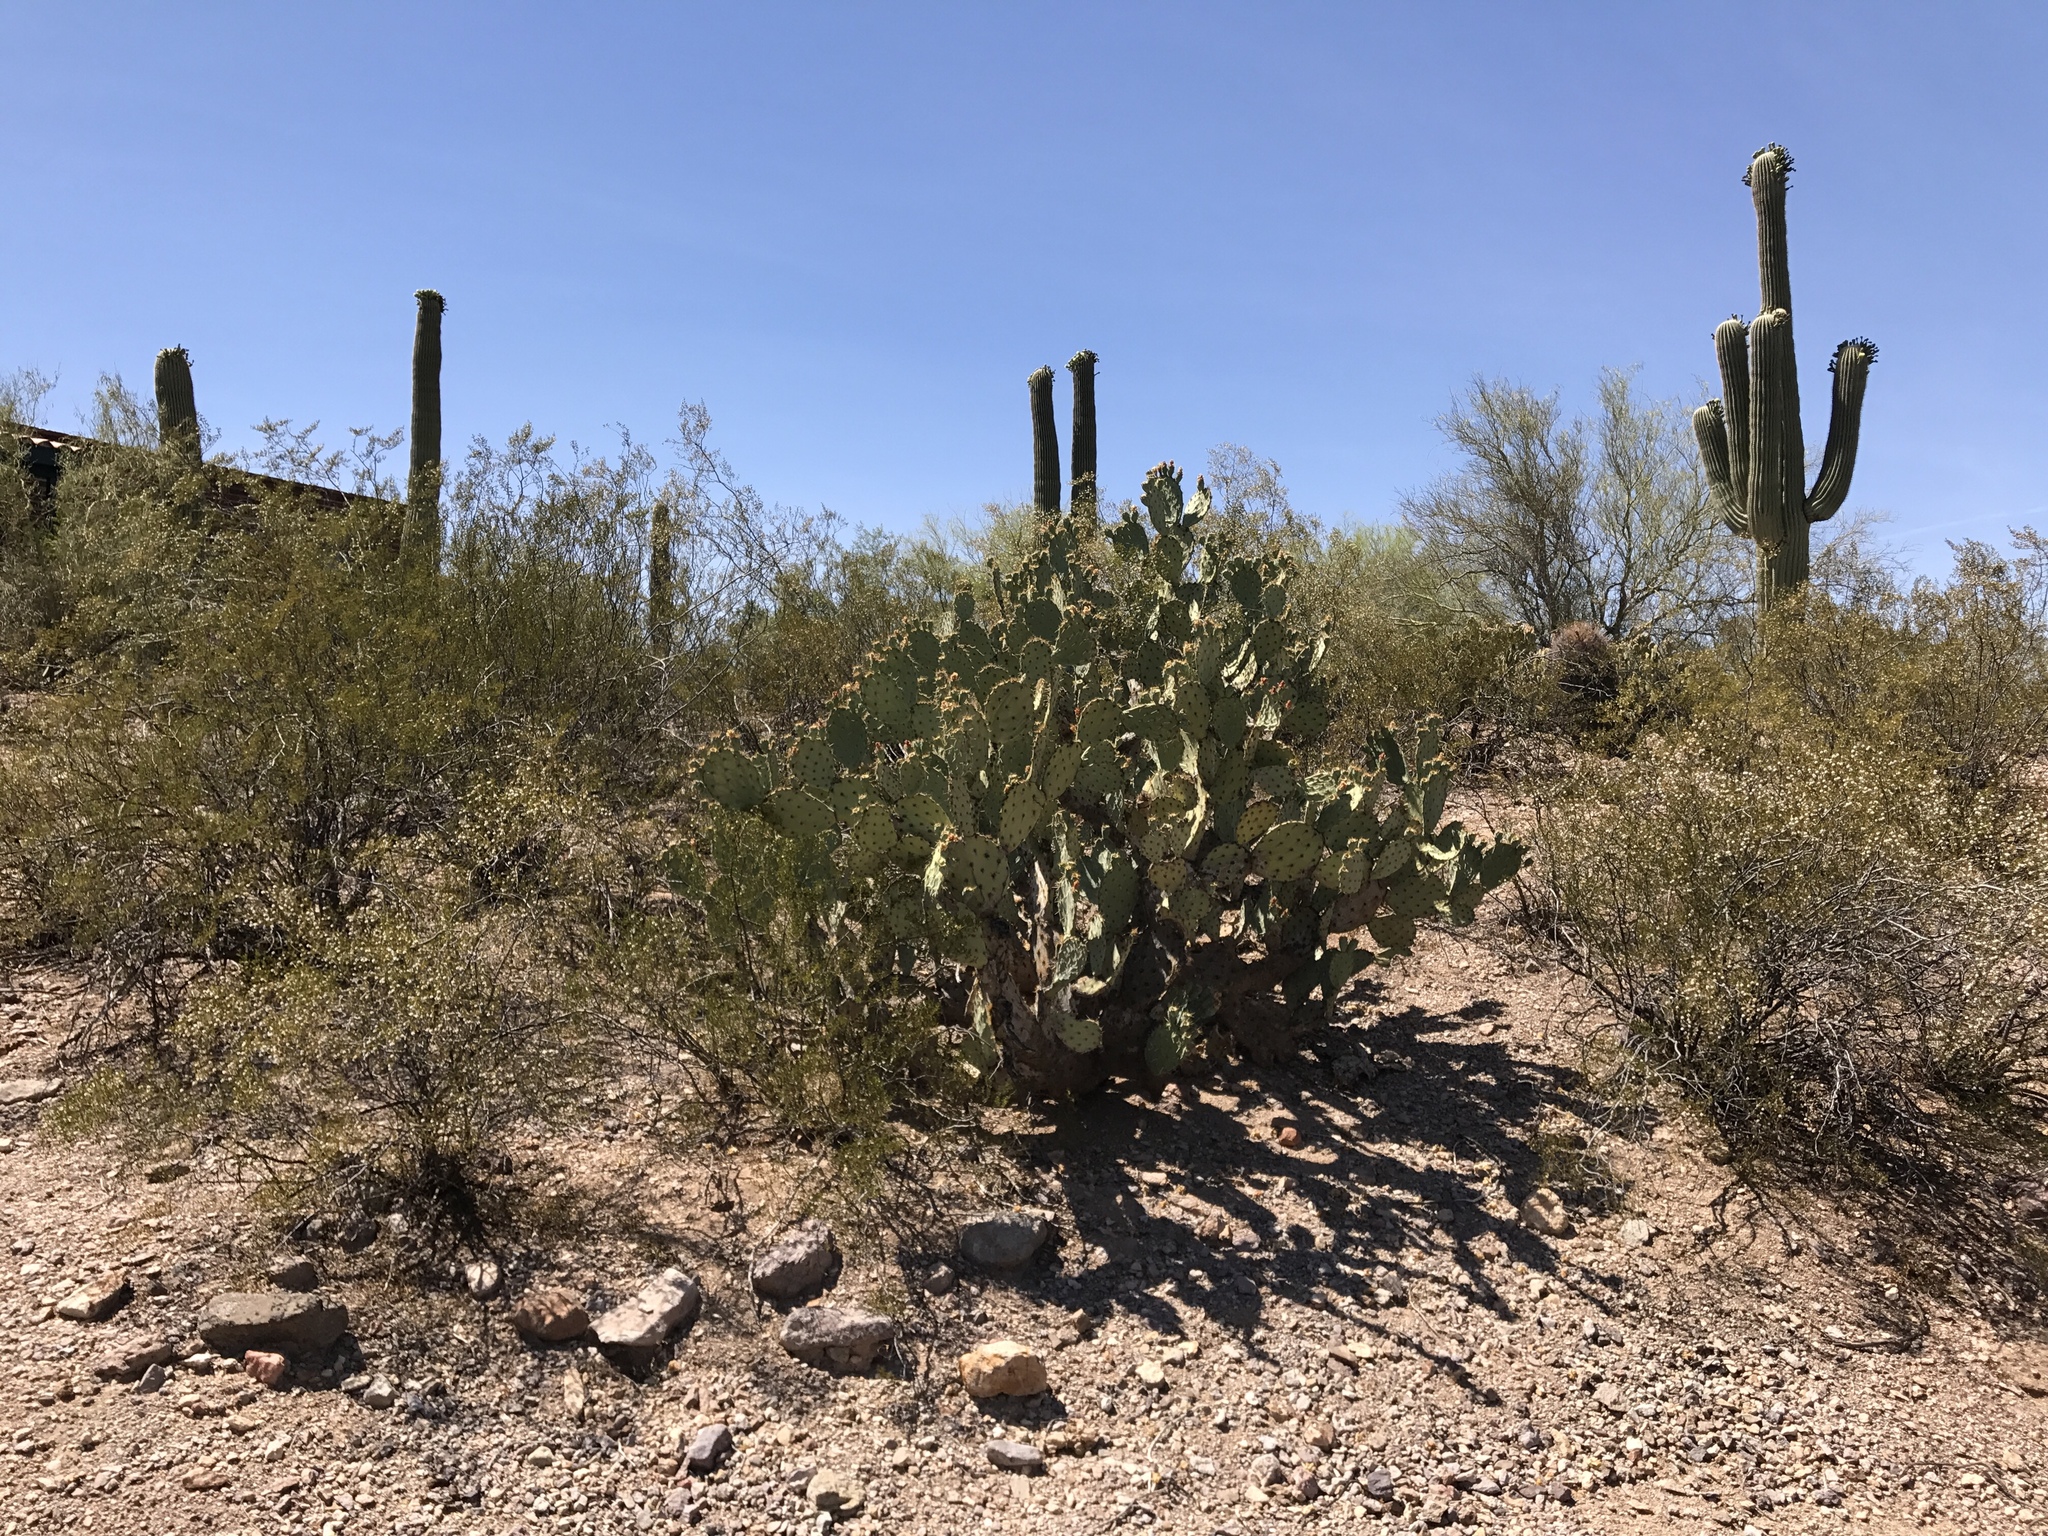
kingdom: Plantae
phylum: Tracheophyta
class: Magnoliopsida
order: Caryophyllales
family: Cactaceae
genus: Opuntia
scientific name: Opuntia engelmannii
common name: Cactus-apple
